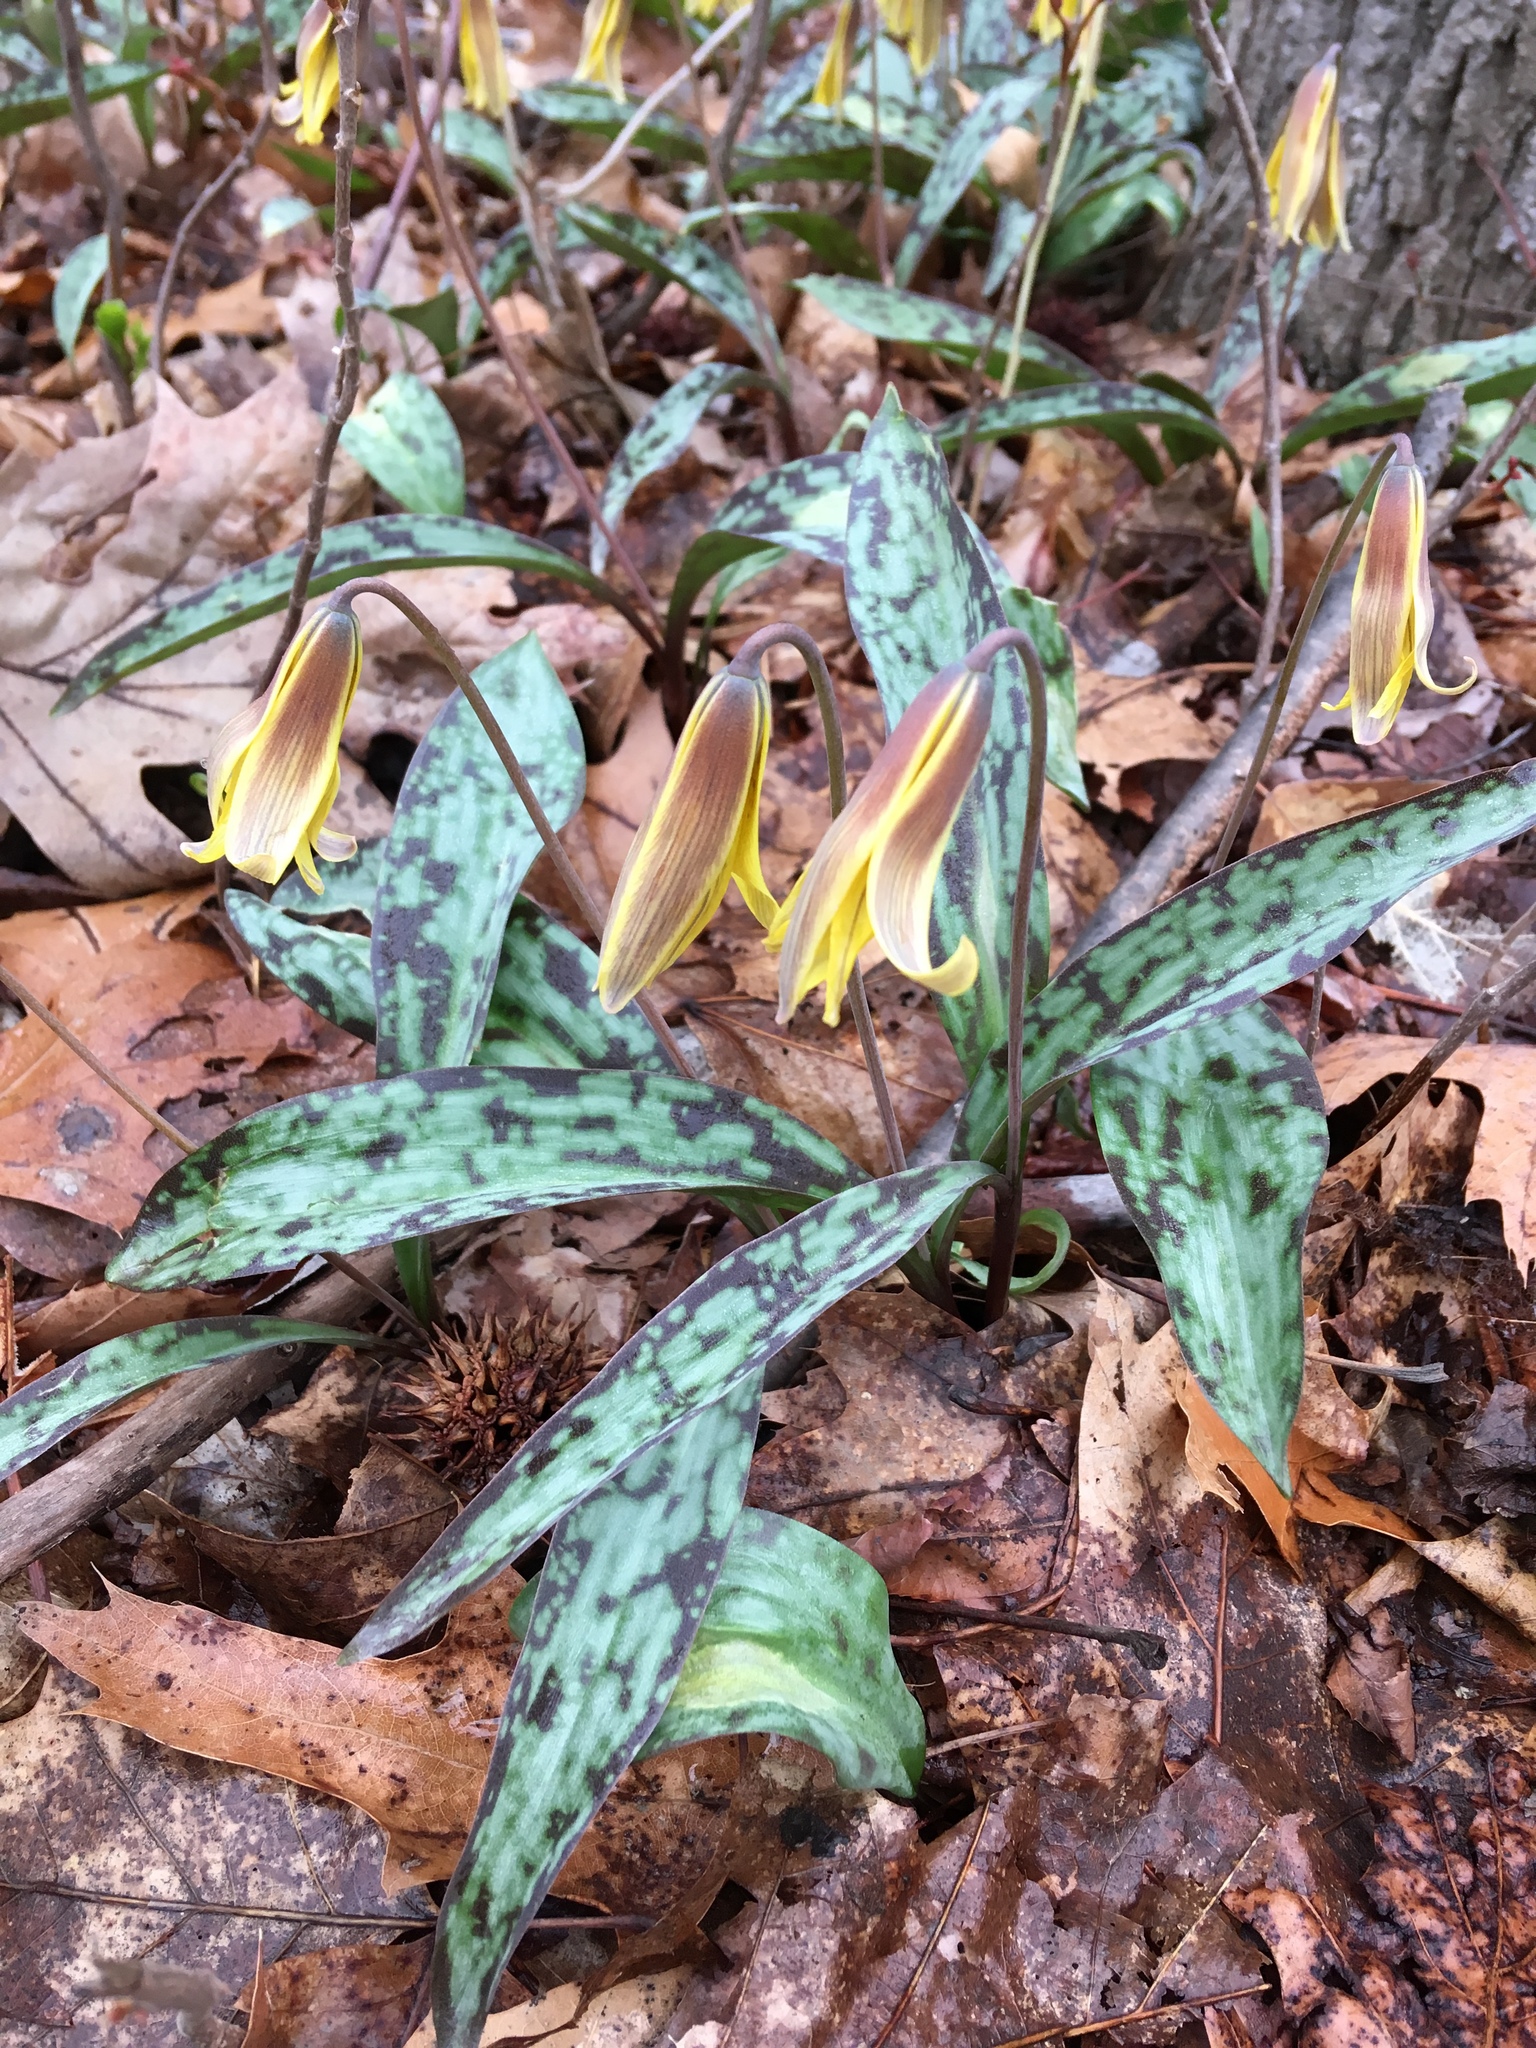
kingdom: Plantae
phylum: Tracheophyta
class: Liliopsida
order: Liliales
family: Liliaceae
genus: Erythronium
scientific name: Erythronium americanum
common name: Yellow adder's-tongue
